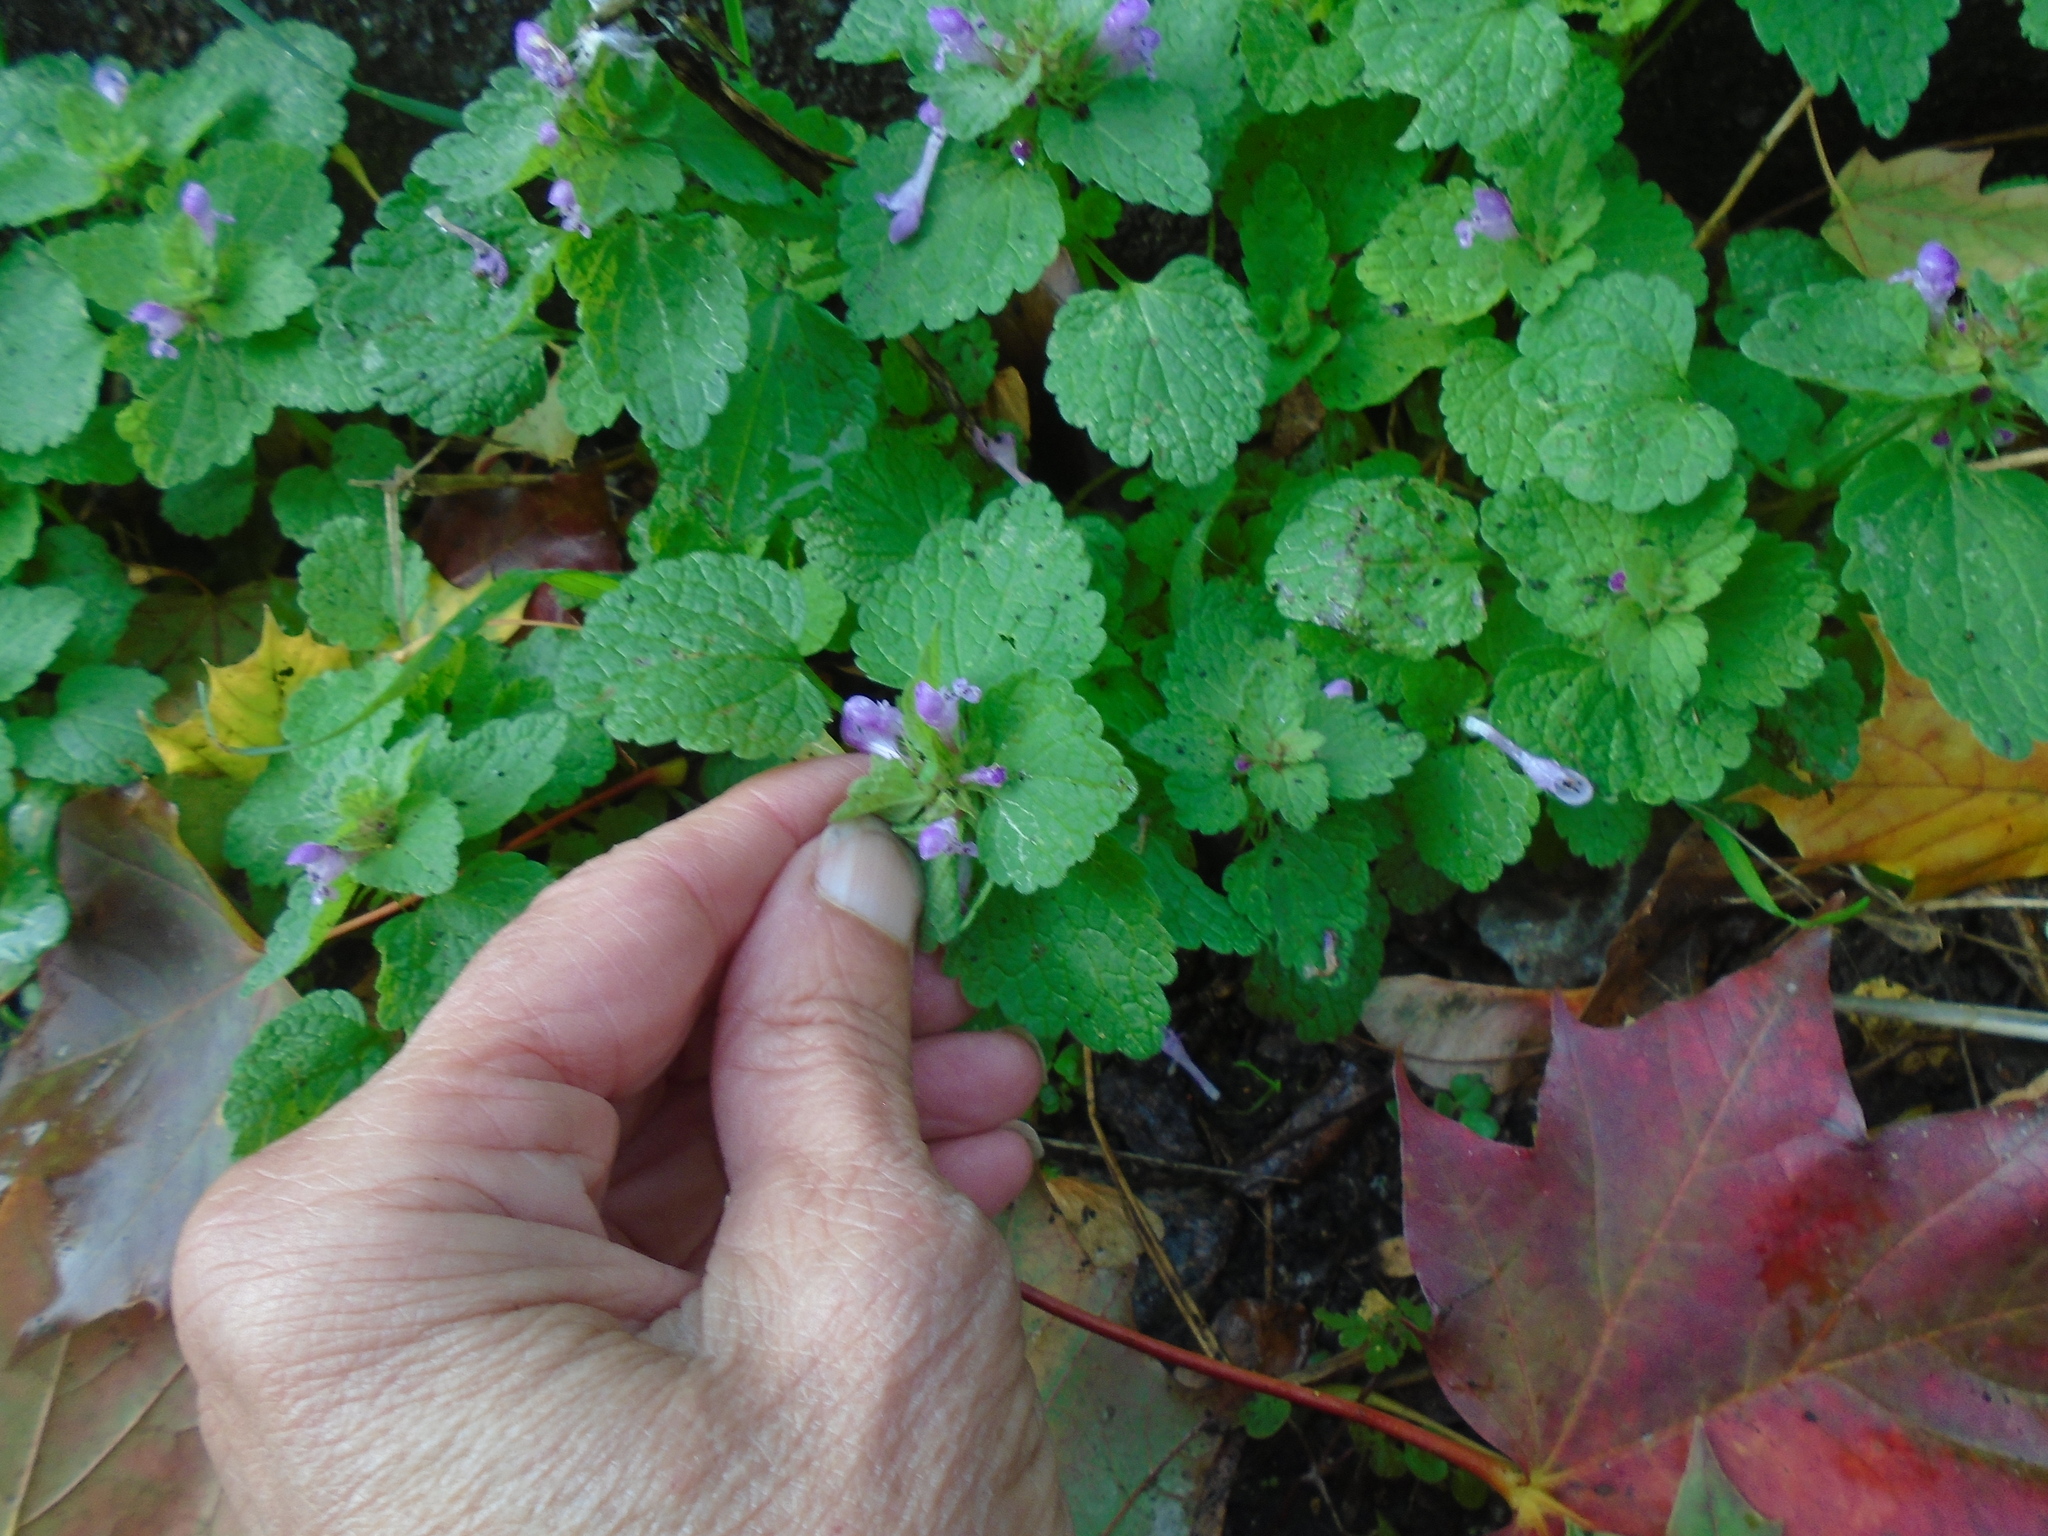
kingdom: Plantae
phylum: Tracheophyta
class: Magnoliopsida
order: Lamiales
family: Lamiaceae
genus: Lamium
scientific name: Lamium purpureum
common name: Red dead-nettle
